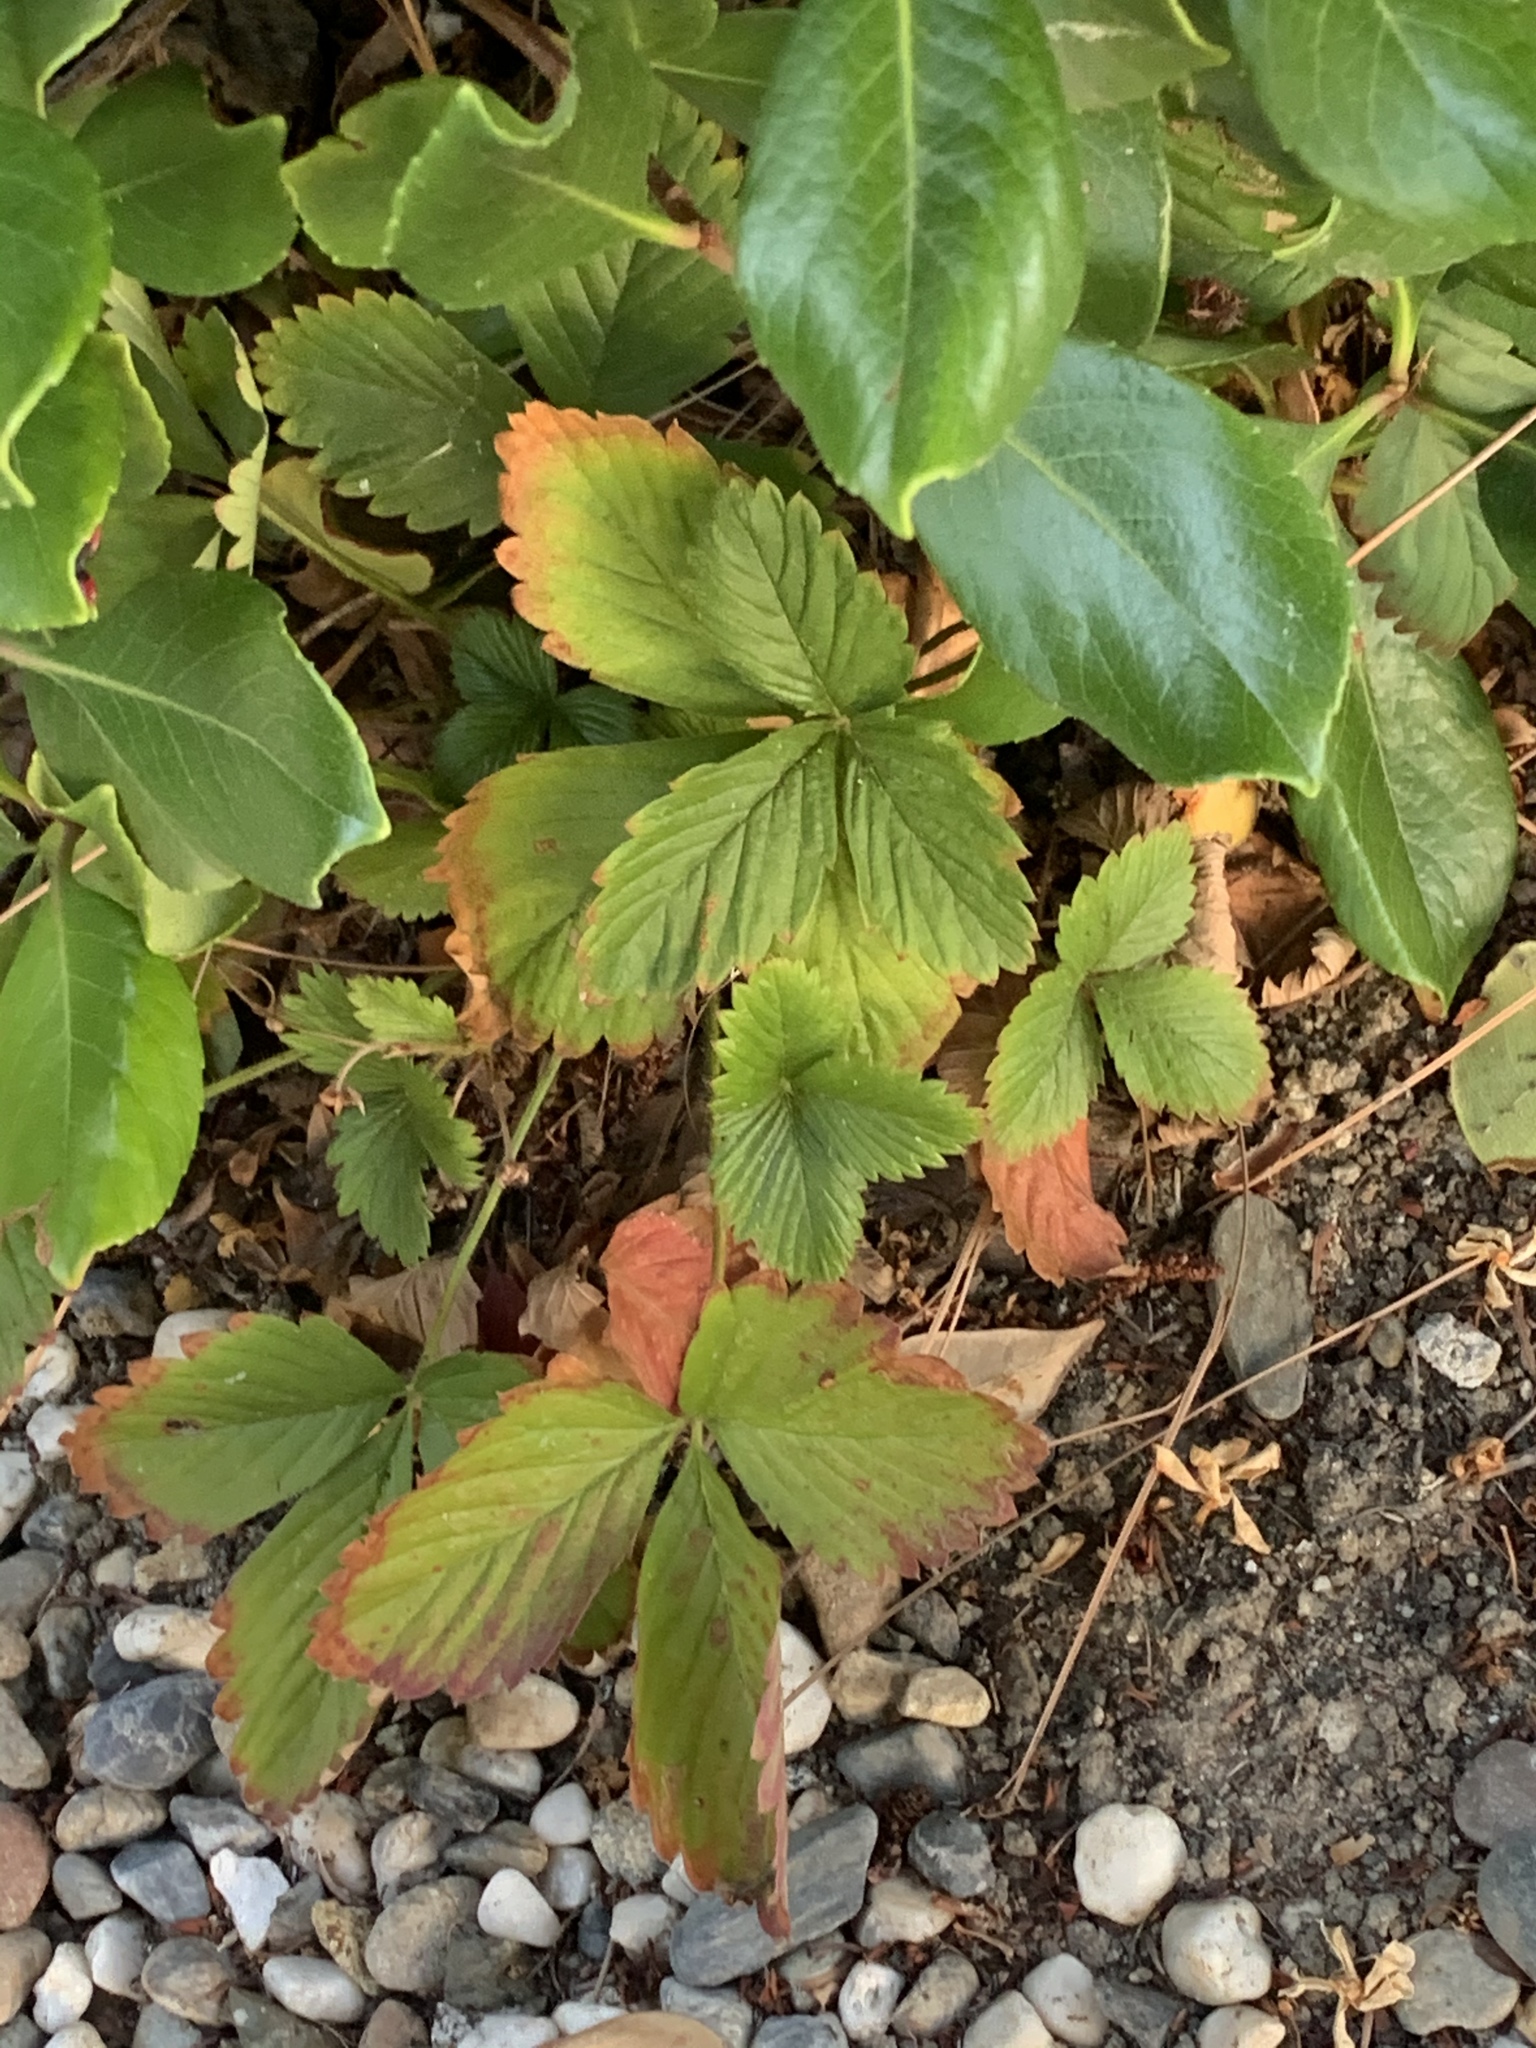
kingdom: Plantae
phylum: Tracheophyta
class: Magnoliopsida
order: Rosales
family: Rosaceae
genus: Fragaria
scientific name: Fragaria vesca
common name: Wild strawberry
